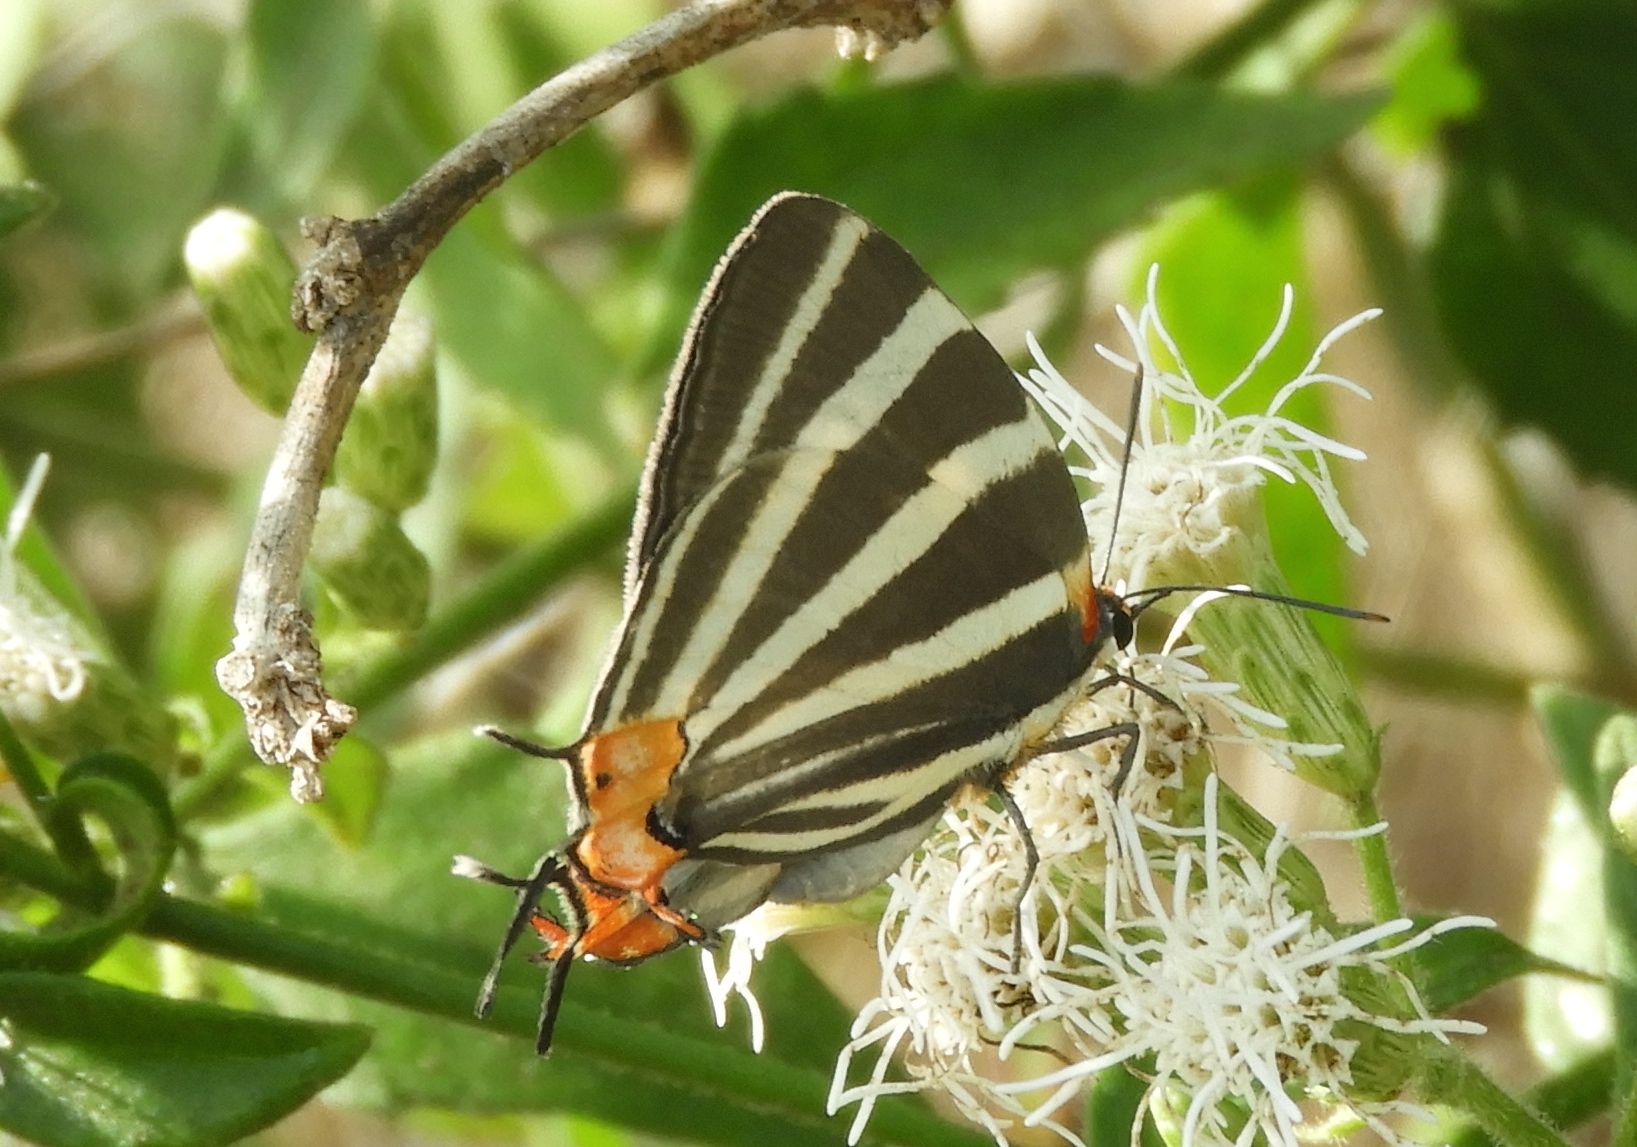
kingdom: Animalia
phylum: Arthropoda
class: Insecta
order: Lepidoptera
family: Lycaenidae
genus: Thecla
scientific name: Thecla bathildis
